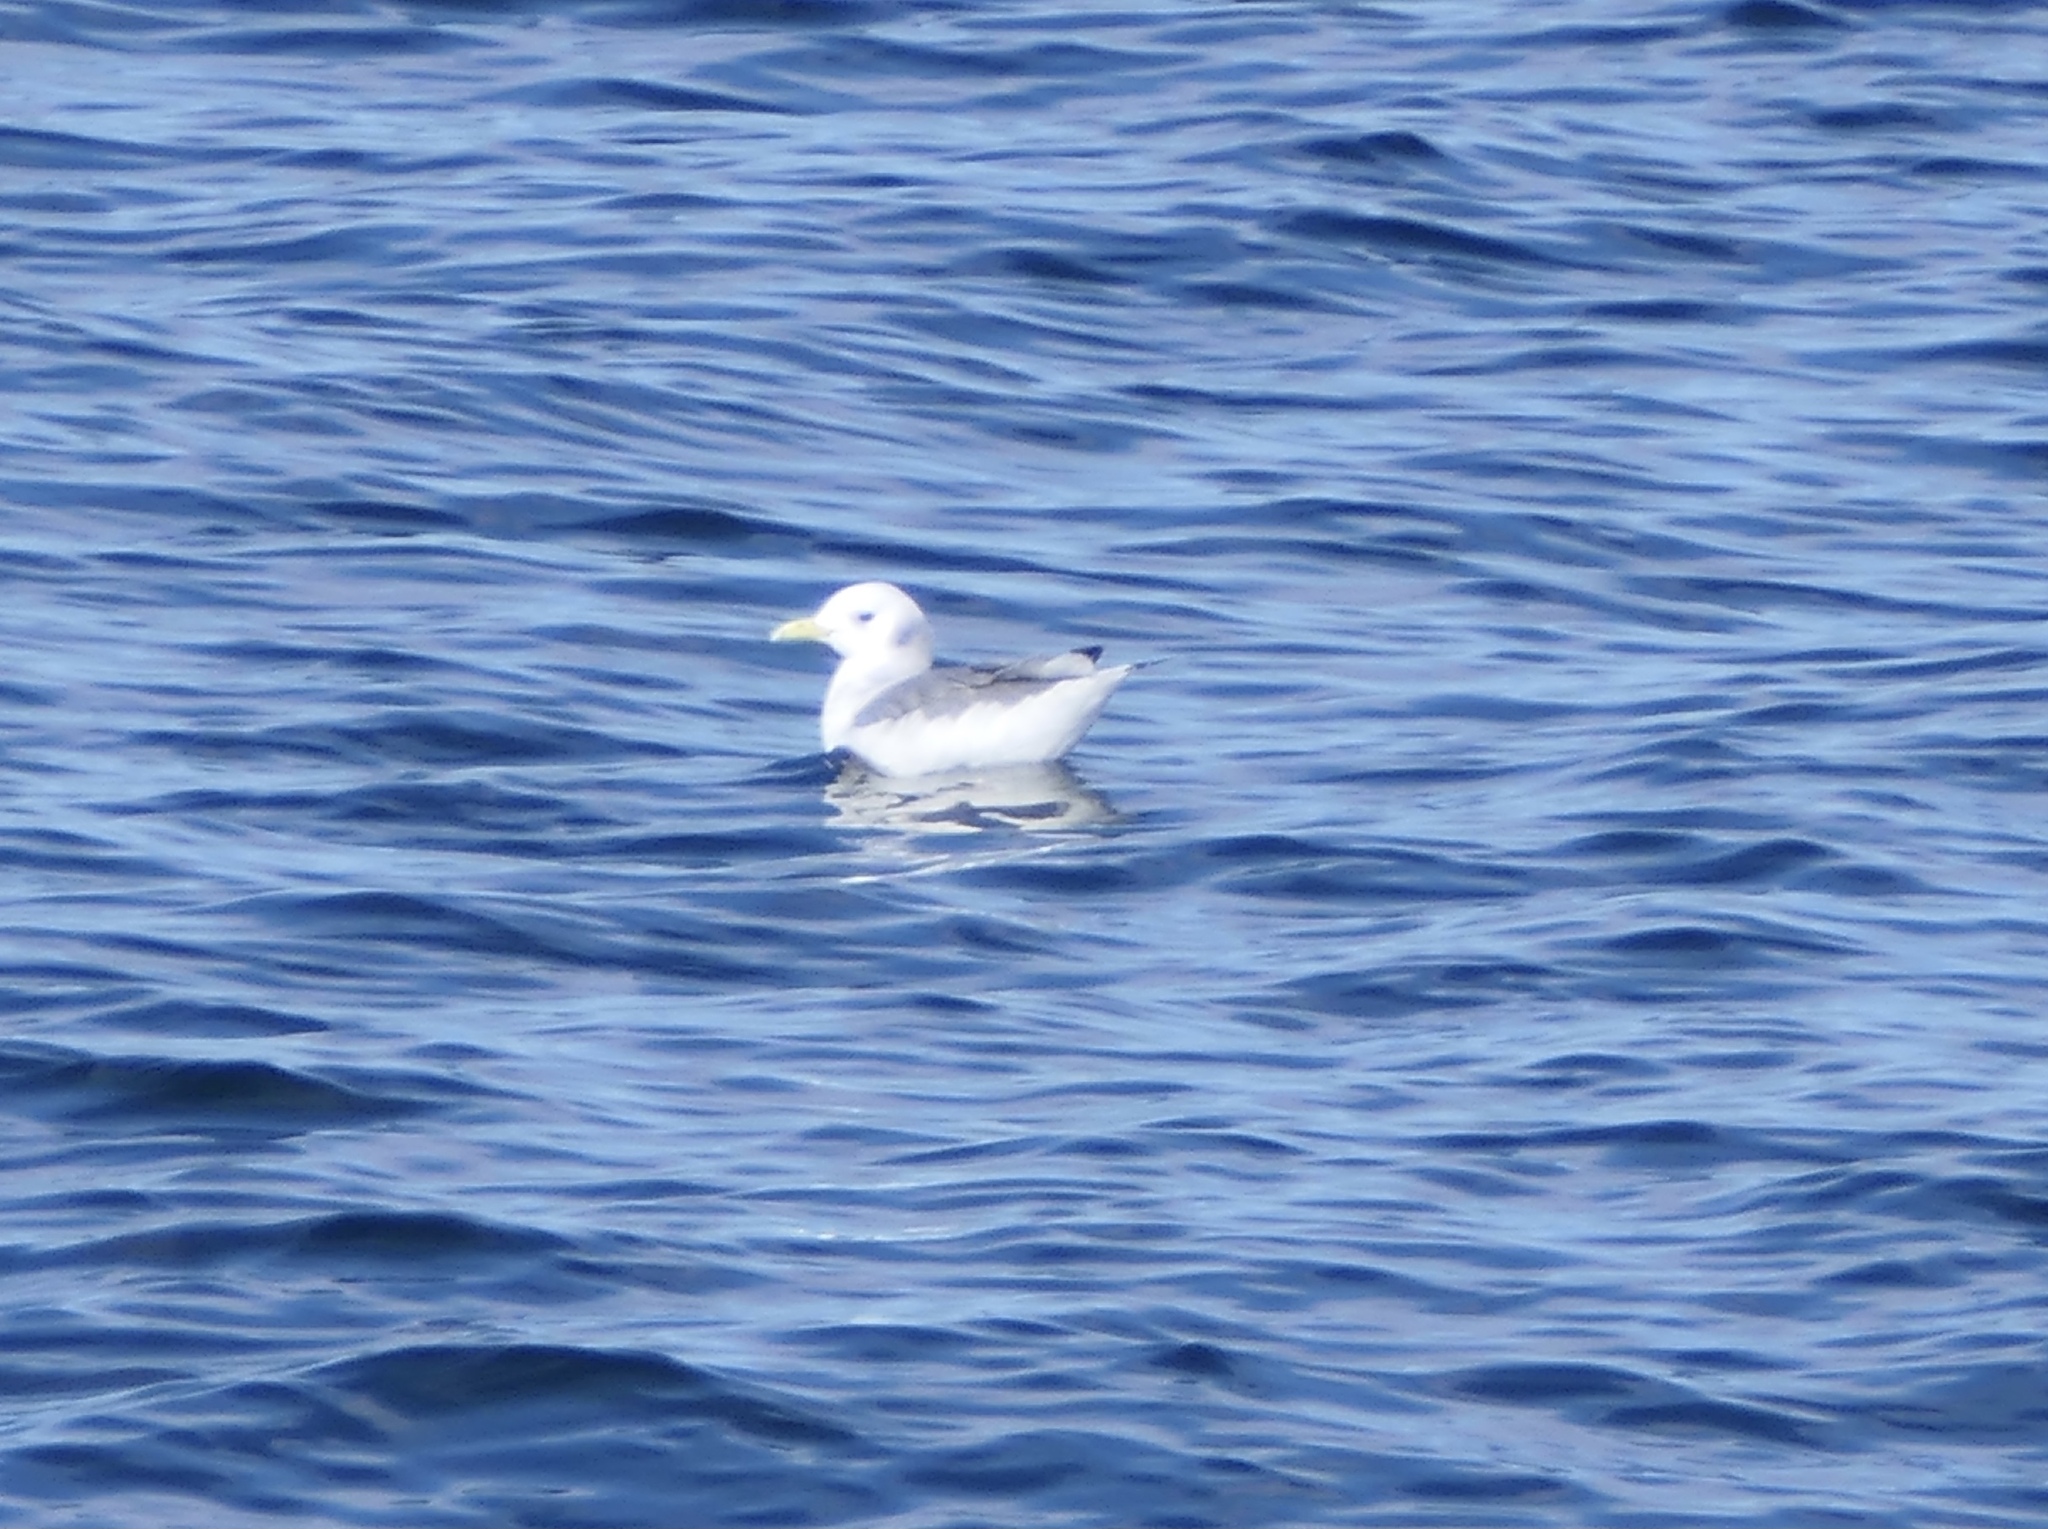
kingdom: Animalia
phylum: Chordata
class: Aves
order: Charadriiformes
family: Laridae
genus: Rissa
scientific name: Rissa tridactyla
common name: Black-legged kittiwake
